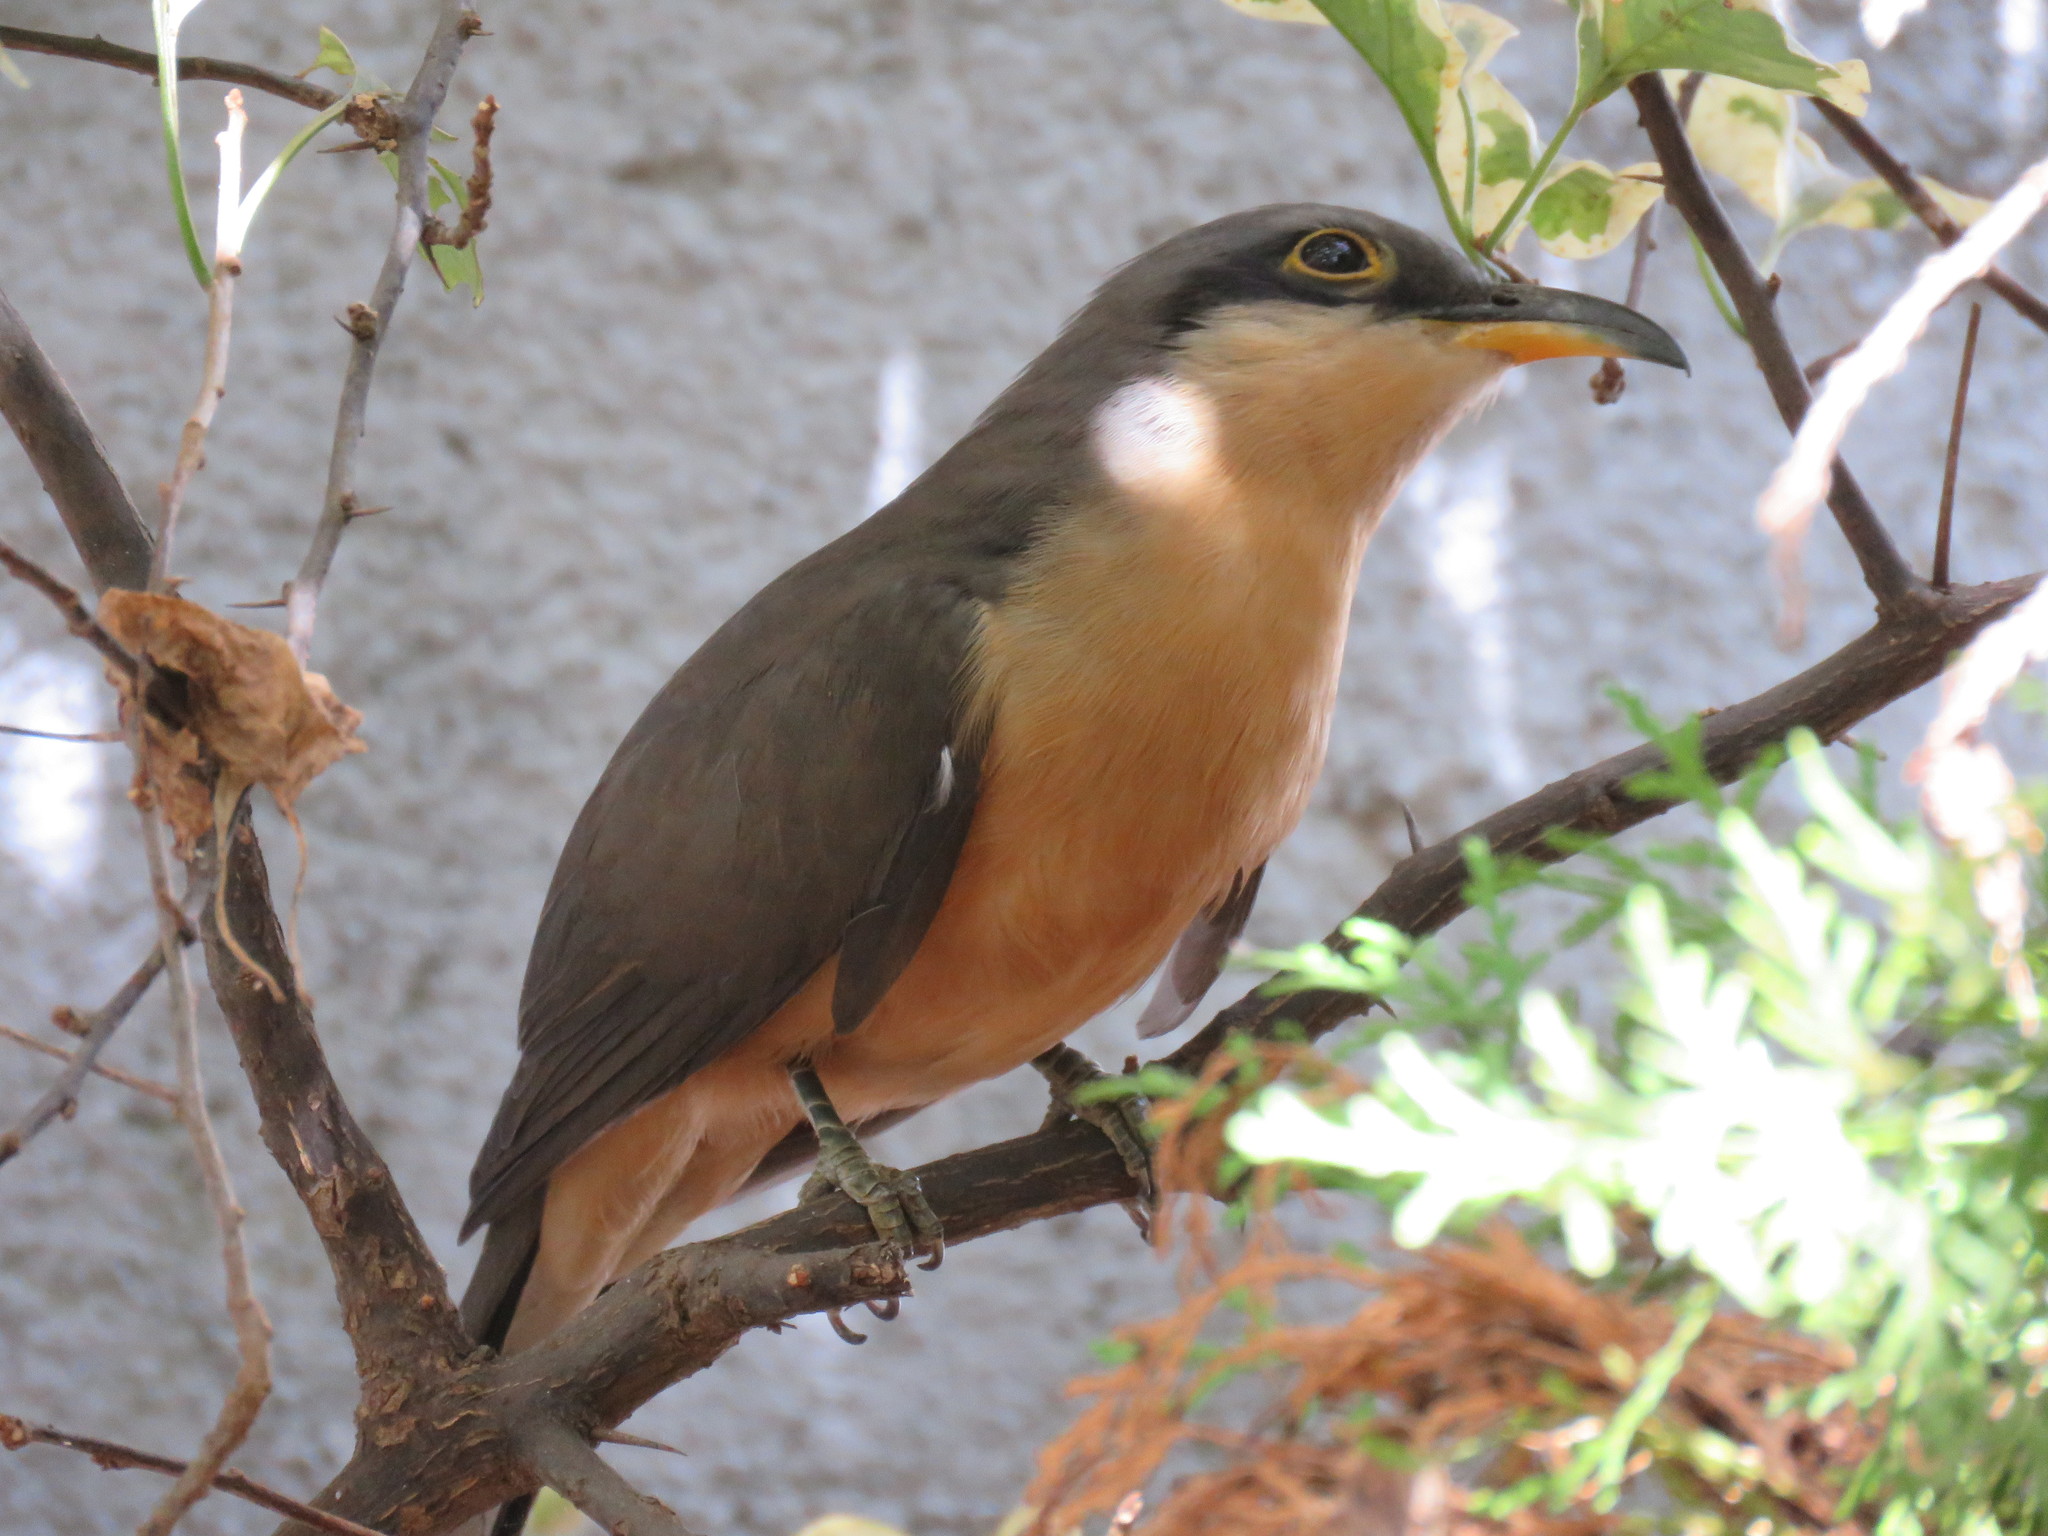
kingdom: Animalia
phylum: Chordata
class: Aves
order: Cuculiformes
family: Cuculidae
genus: Coccyzus
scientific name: Coccyzus minor
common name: Mangrove cuckoo
